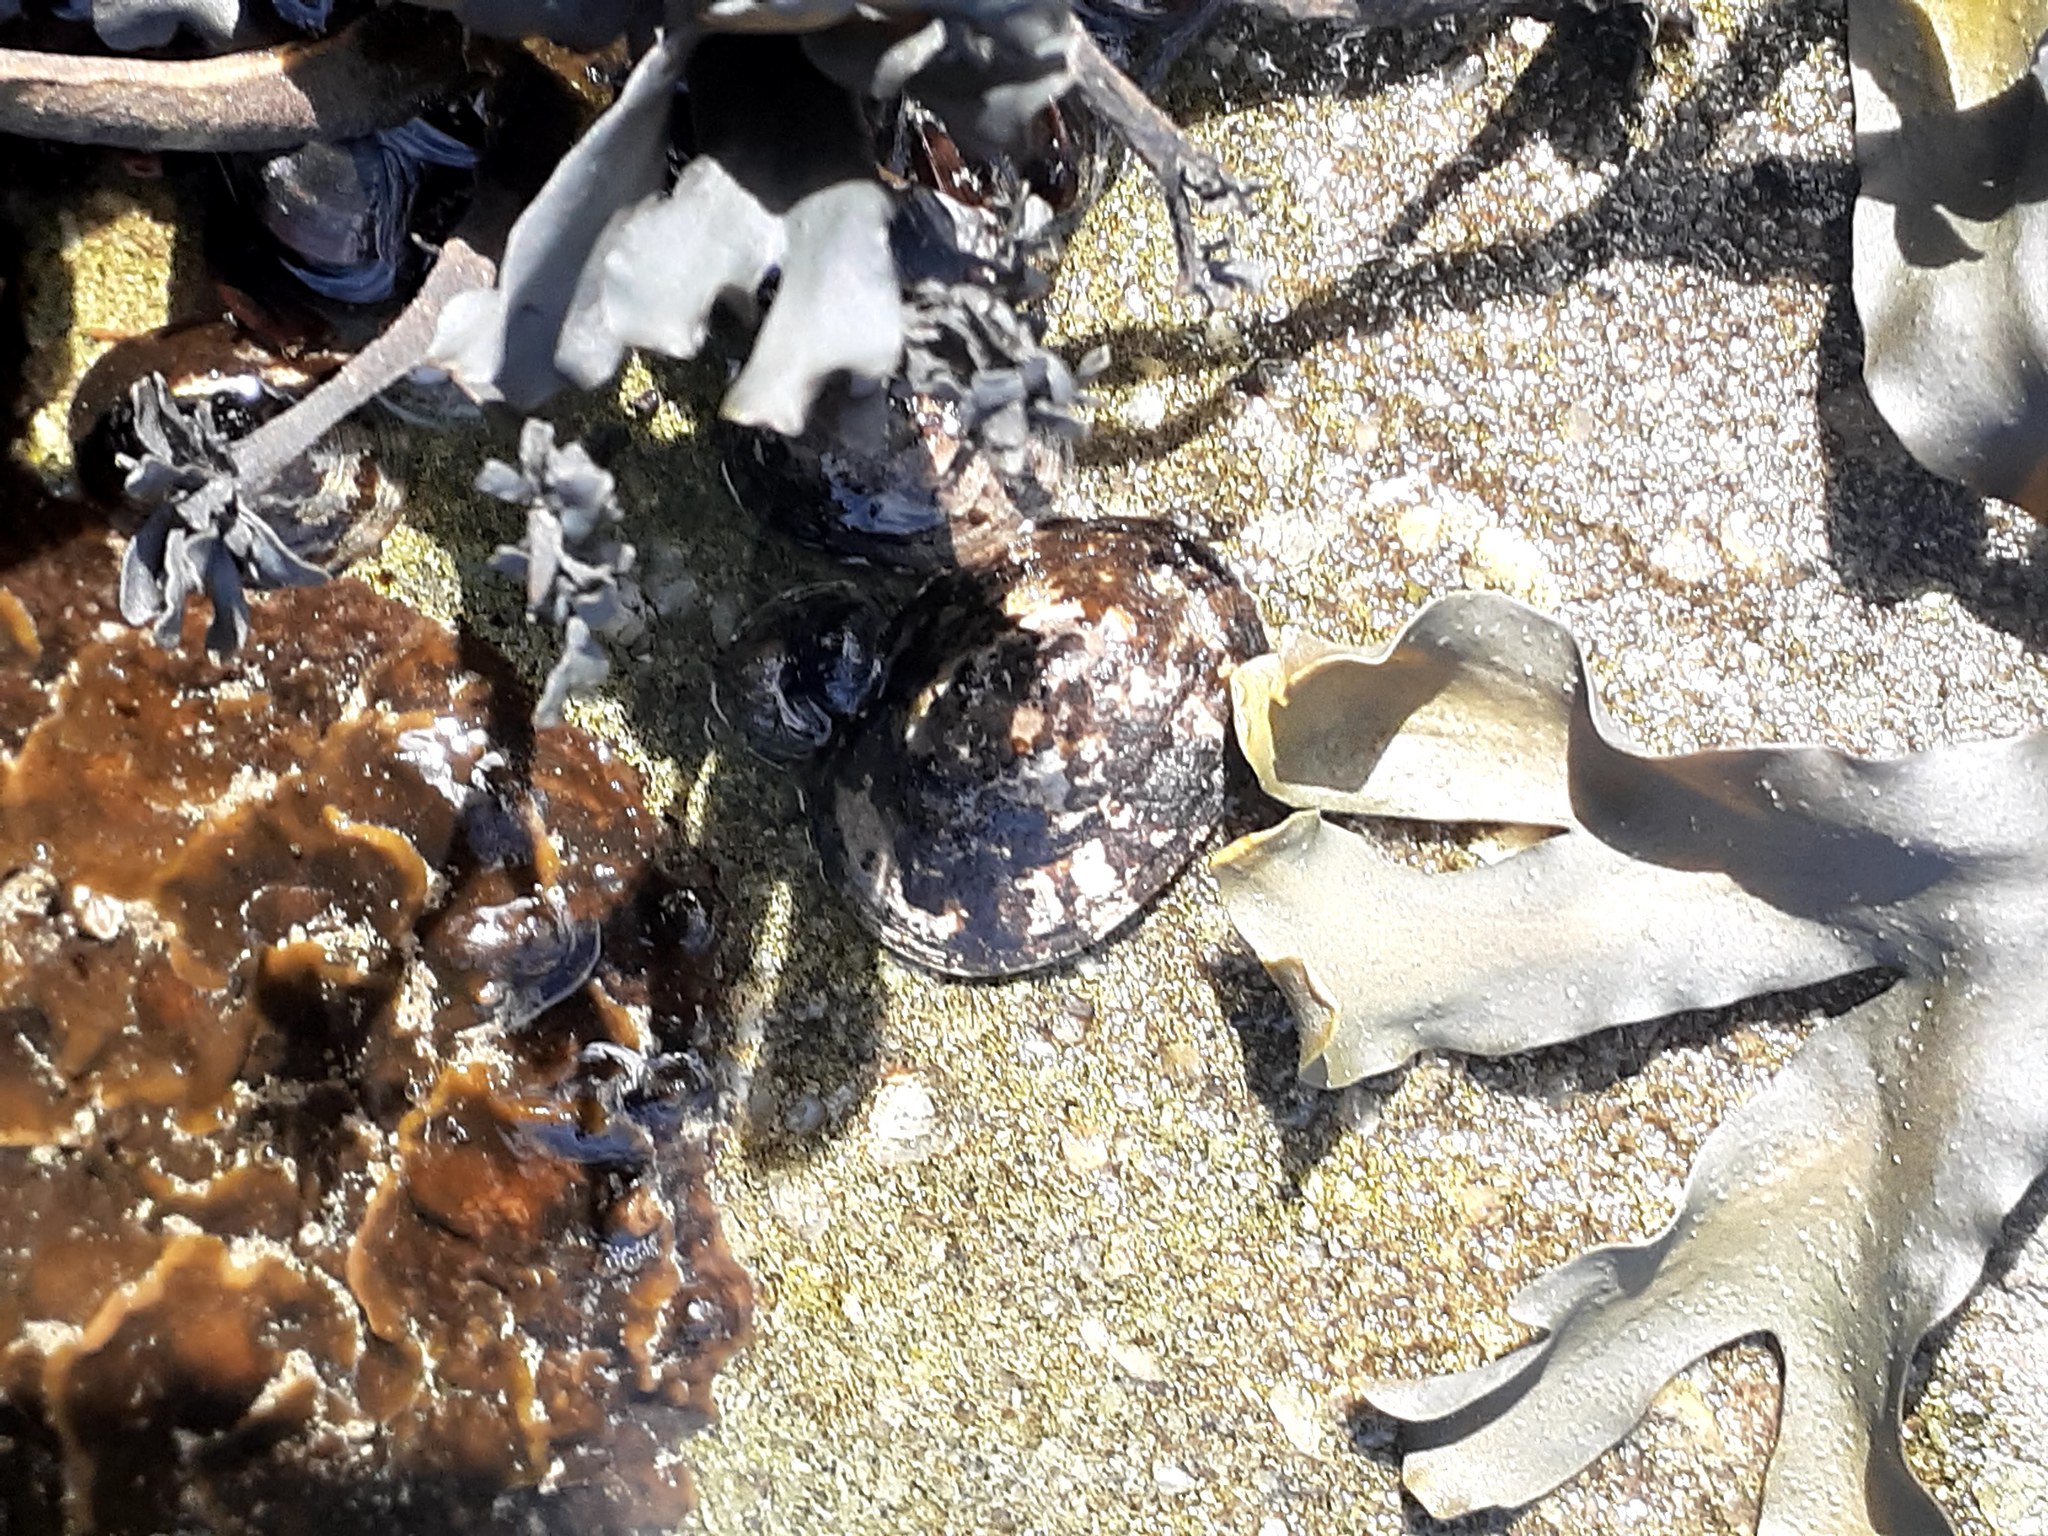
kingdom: Animalia
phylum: Mollusca
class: Gastropoda
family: Lottiidae
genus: Testudinalia
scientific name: Testudinalia testudinalis
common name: Common tortoiseshell limpet
